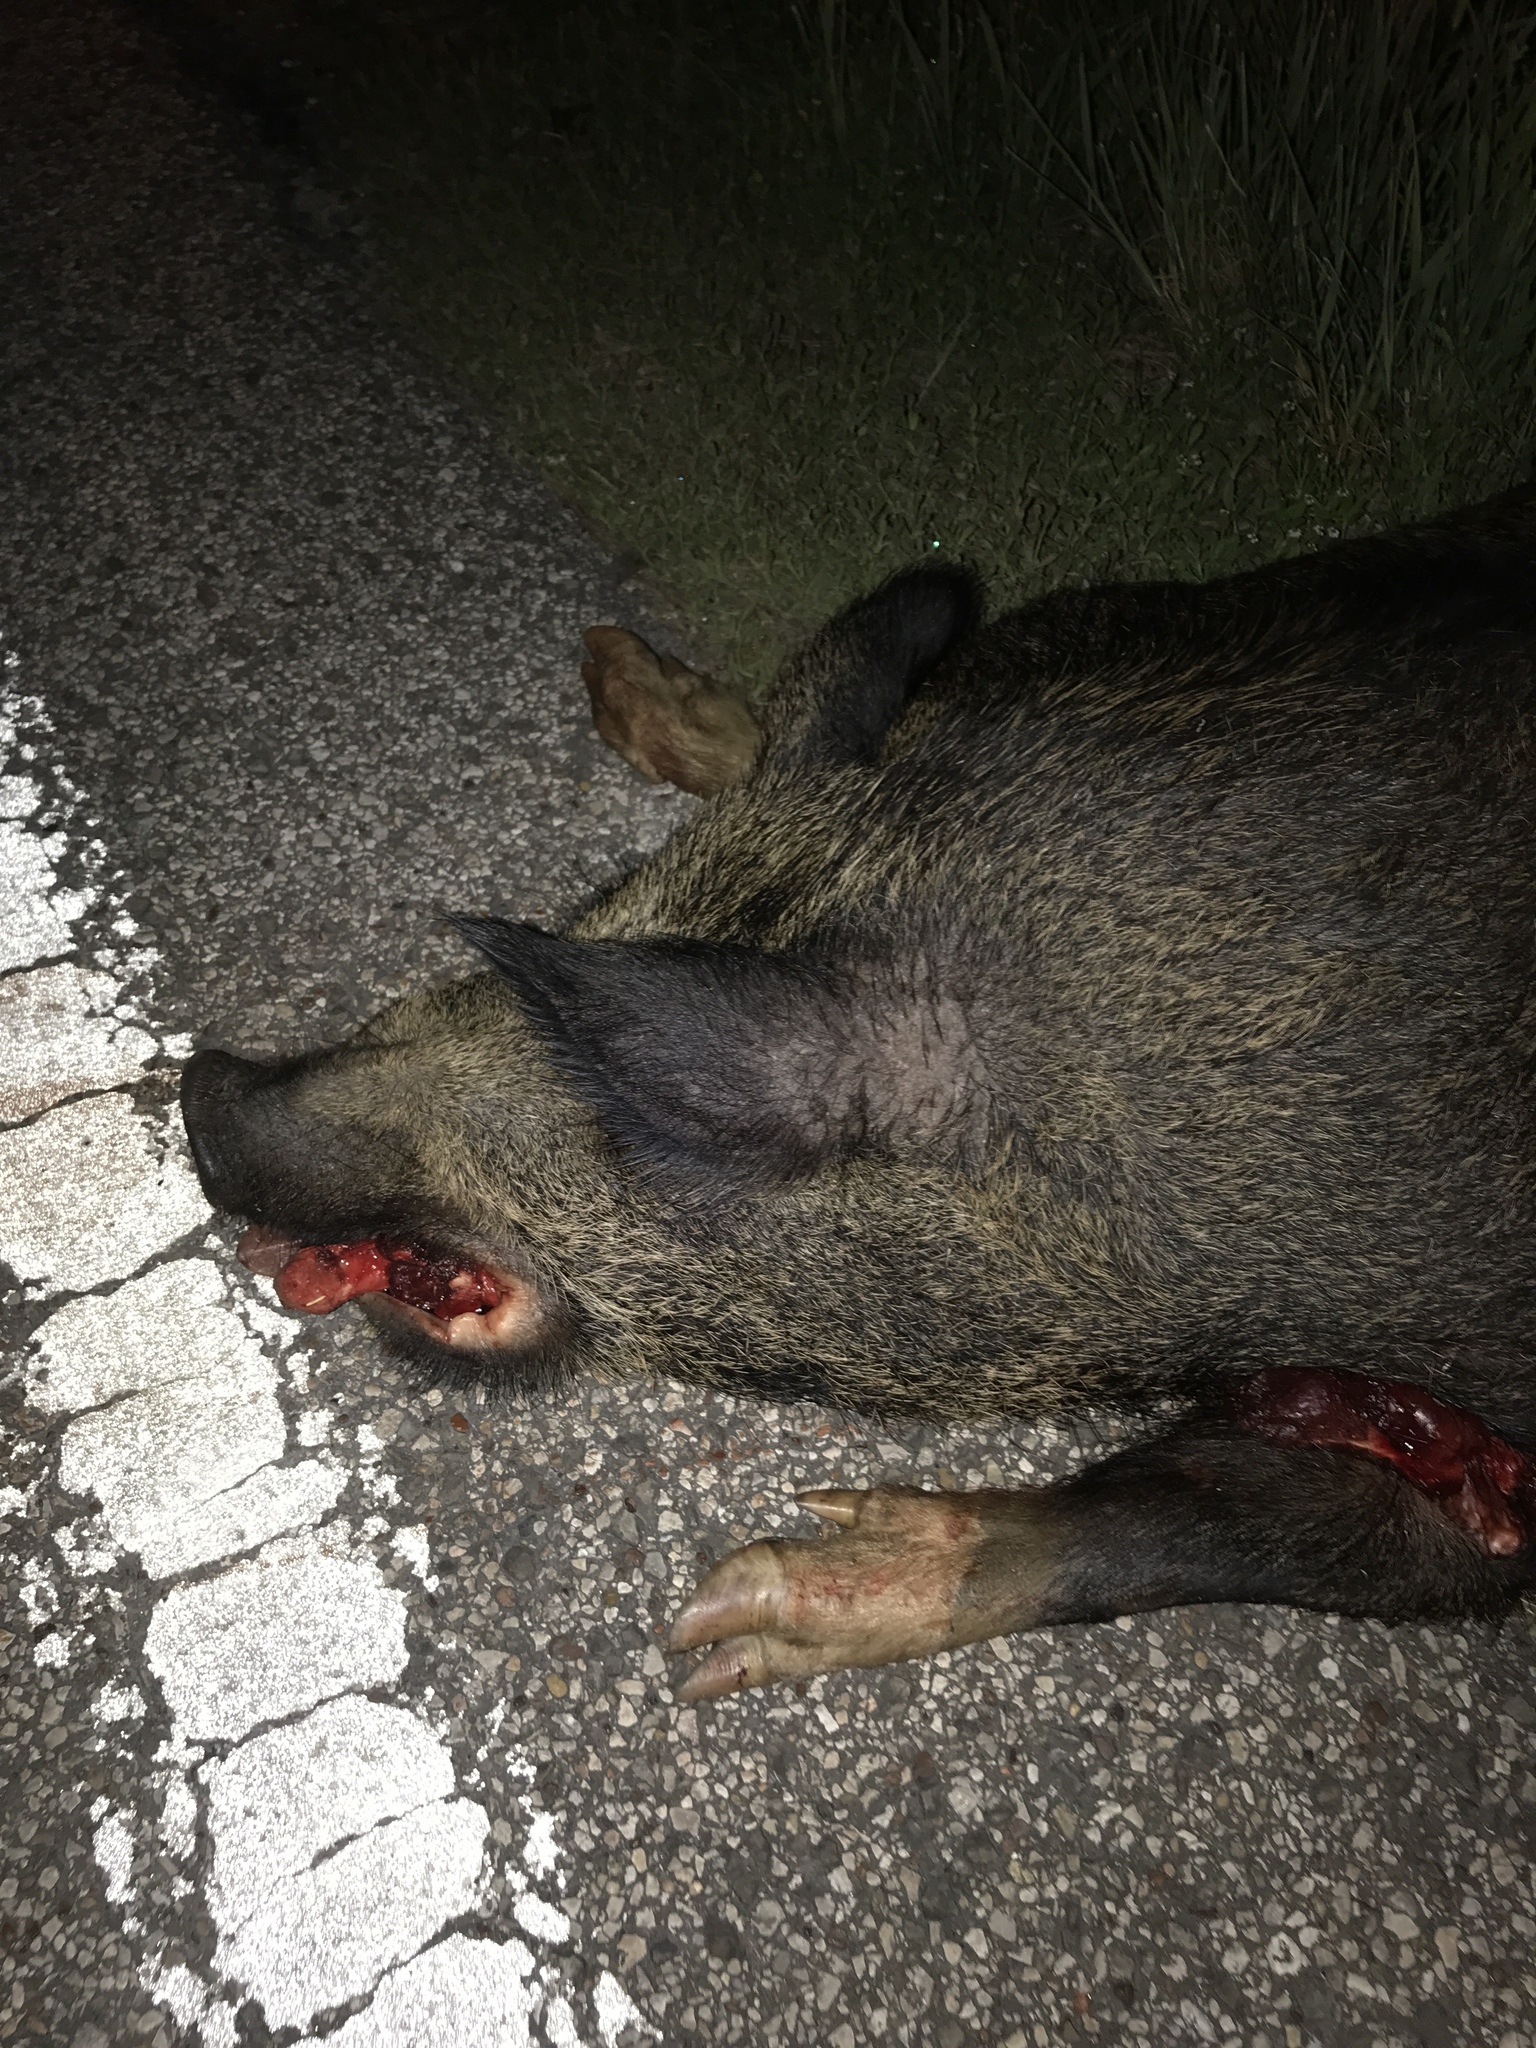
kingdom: Animalia
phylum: Chordata
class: Mammalia
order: Artiodactyla
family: Suidae
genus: Sus
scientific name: Sus scrofa
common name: Wild boar
